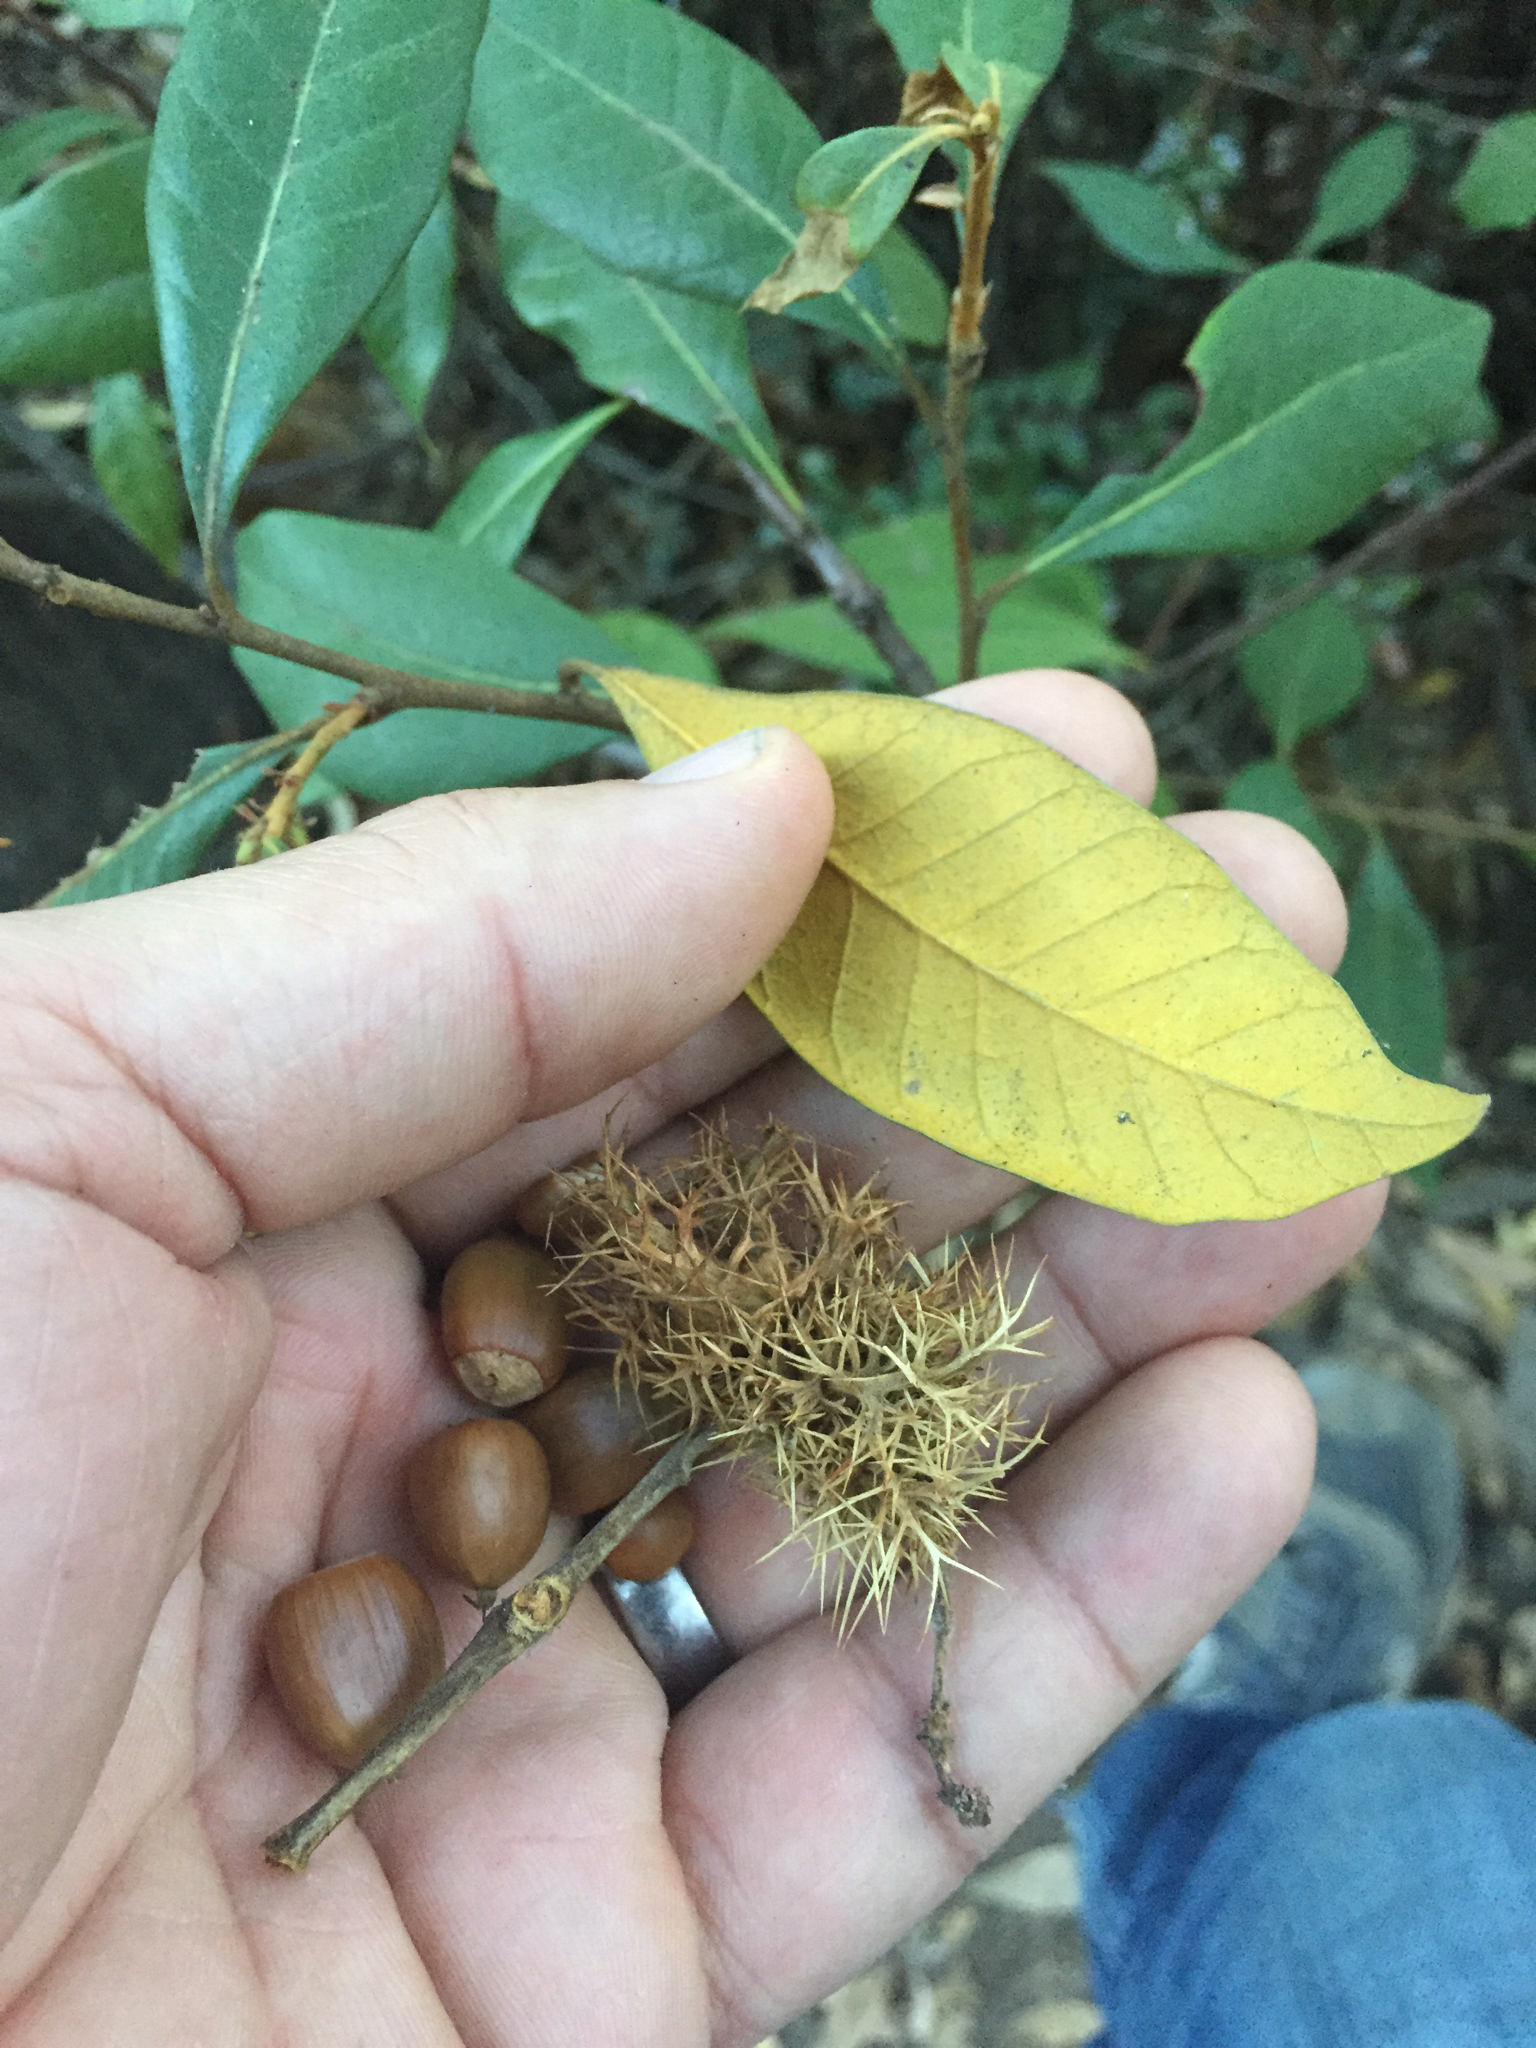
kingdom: Plantae
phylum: Tracheophyta
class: Magnoliopsida
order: Fagales
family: Fagaceae
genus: Chrysolepis
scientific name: Chrysolepis chrysophylla
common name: Giant chinquapin
